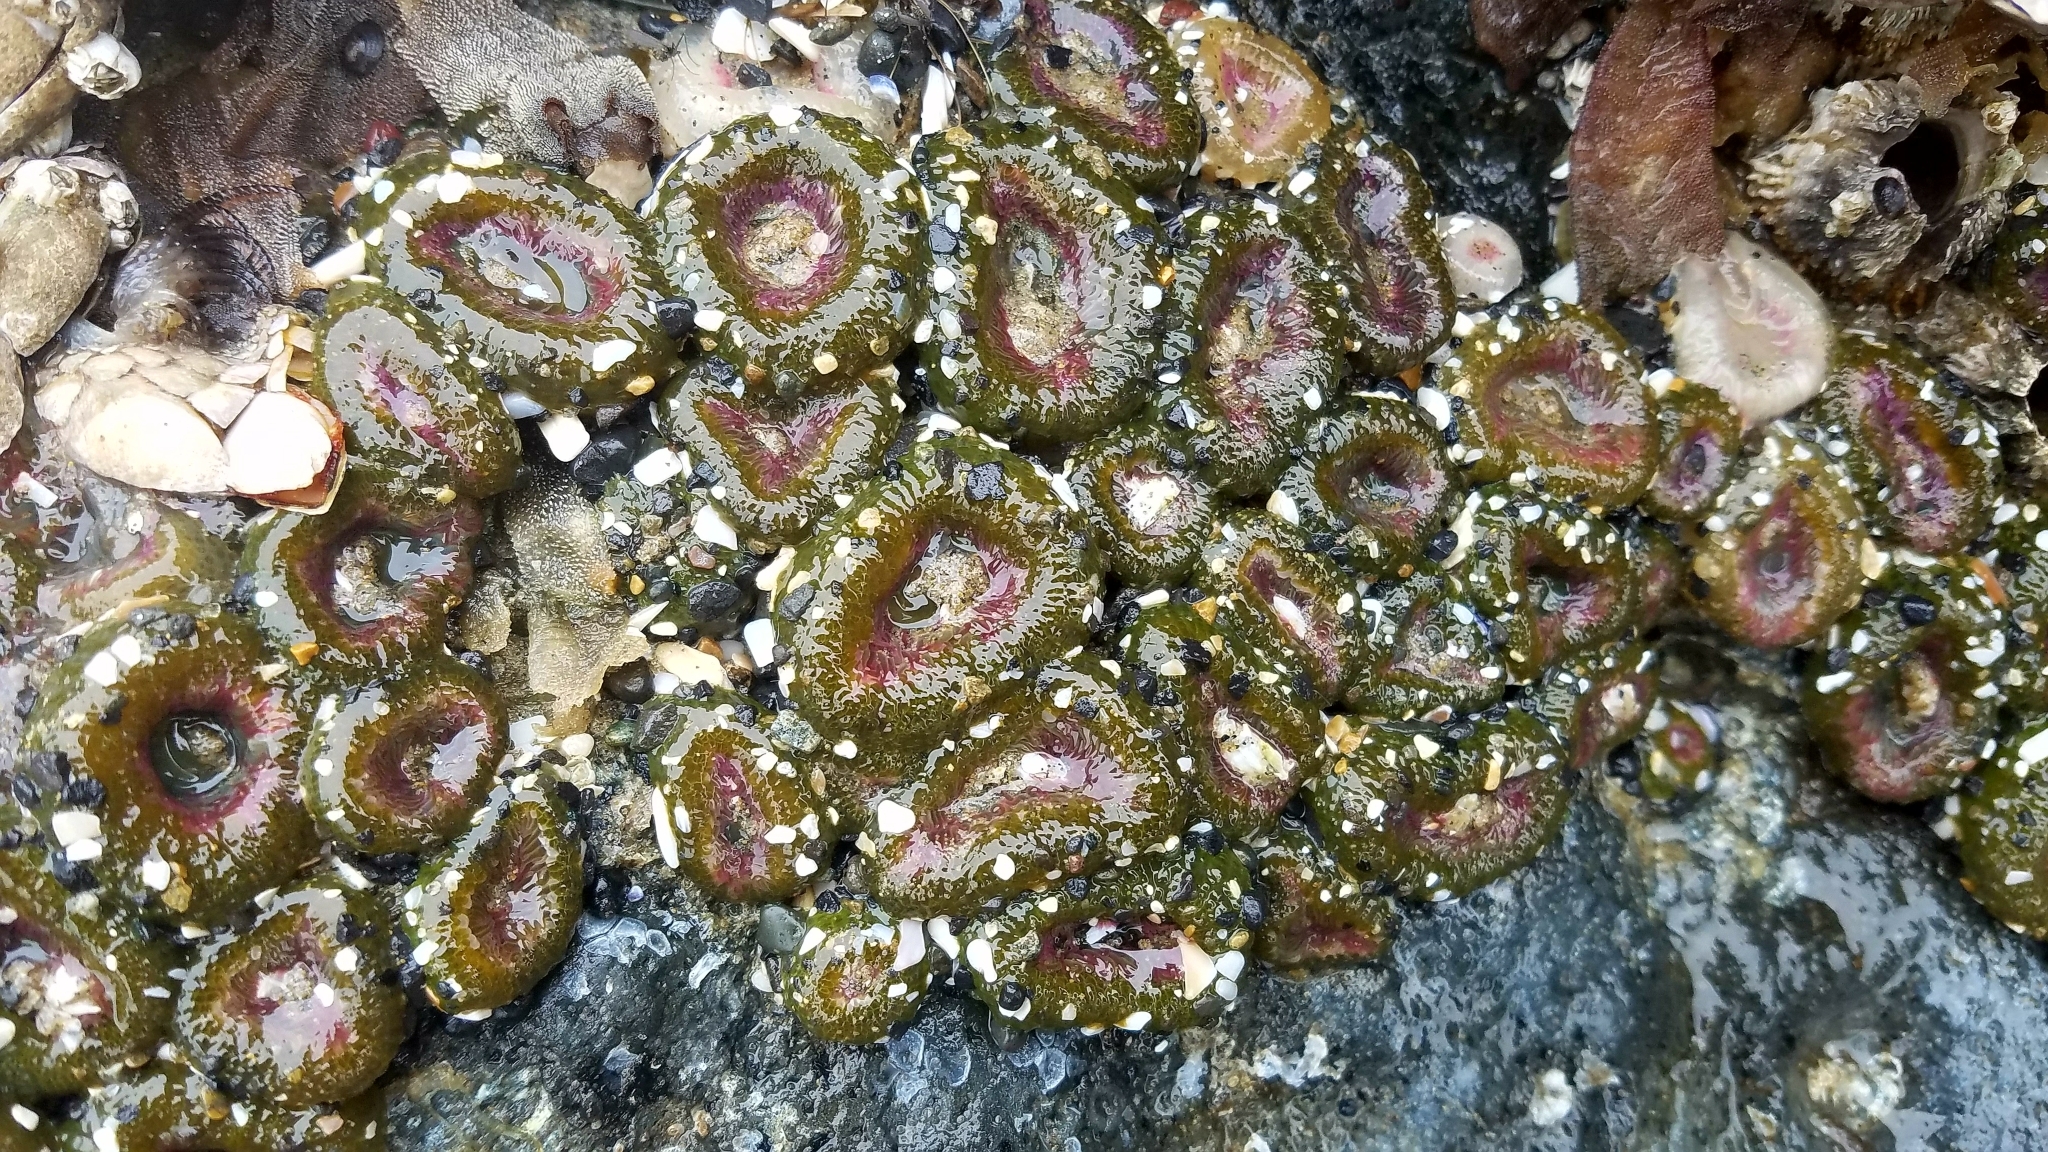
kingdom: Animalia
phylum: Cnidaria
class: Anthozoa
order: Actiniaria
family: Actiniidae
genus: Anthopleura
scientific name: Anthopleura elegantissima
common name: Clonal anemone
